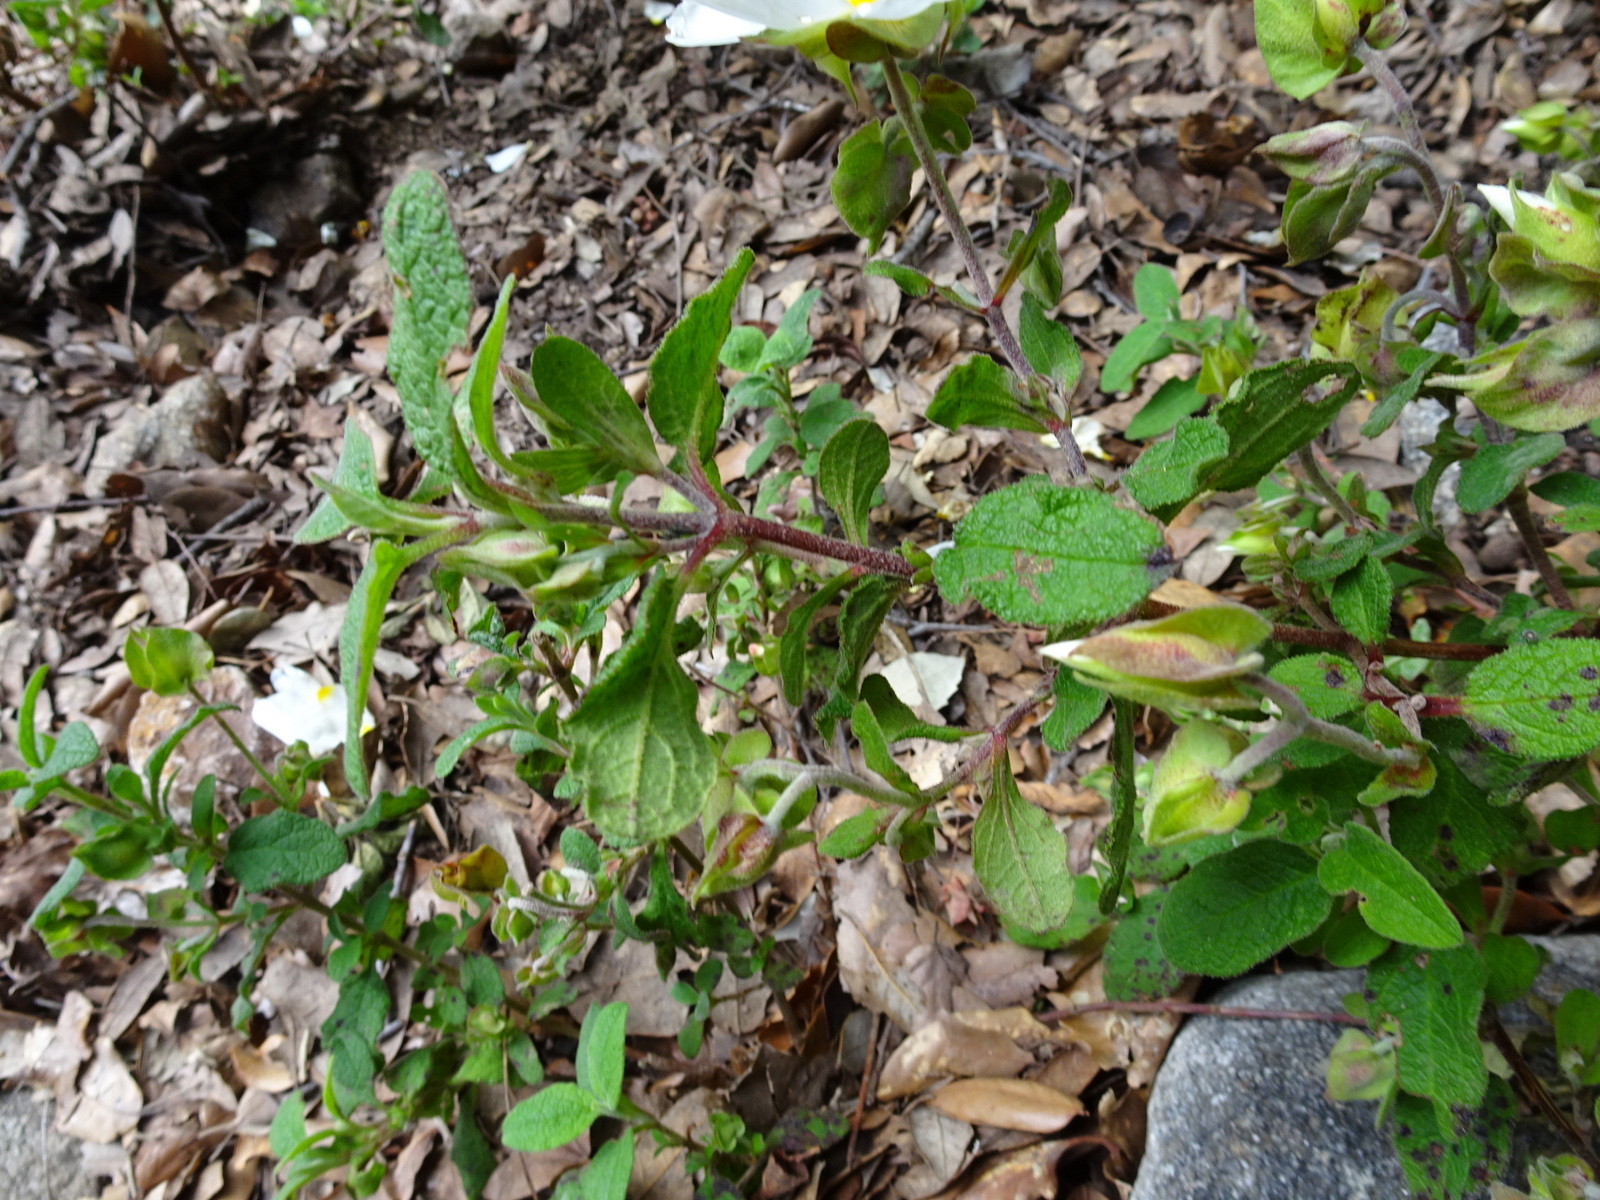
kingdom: Plantae
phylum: Tracheophyta
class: Magnoliopsida
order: Malvales
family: Cistaceae
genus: Cistus
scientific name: Cistus salviifolius
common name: Salvia cistus
